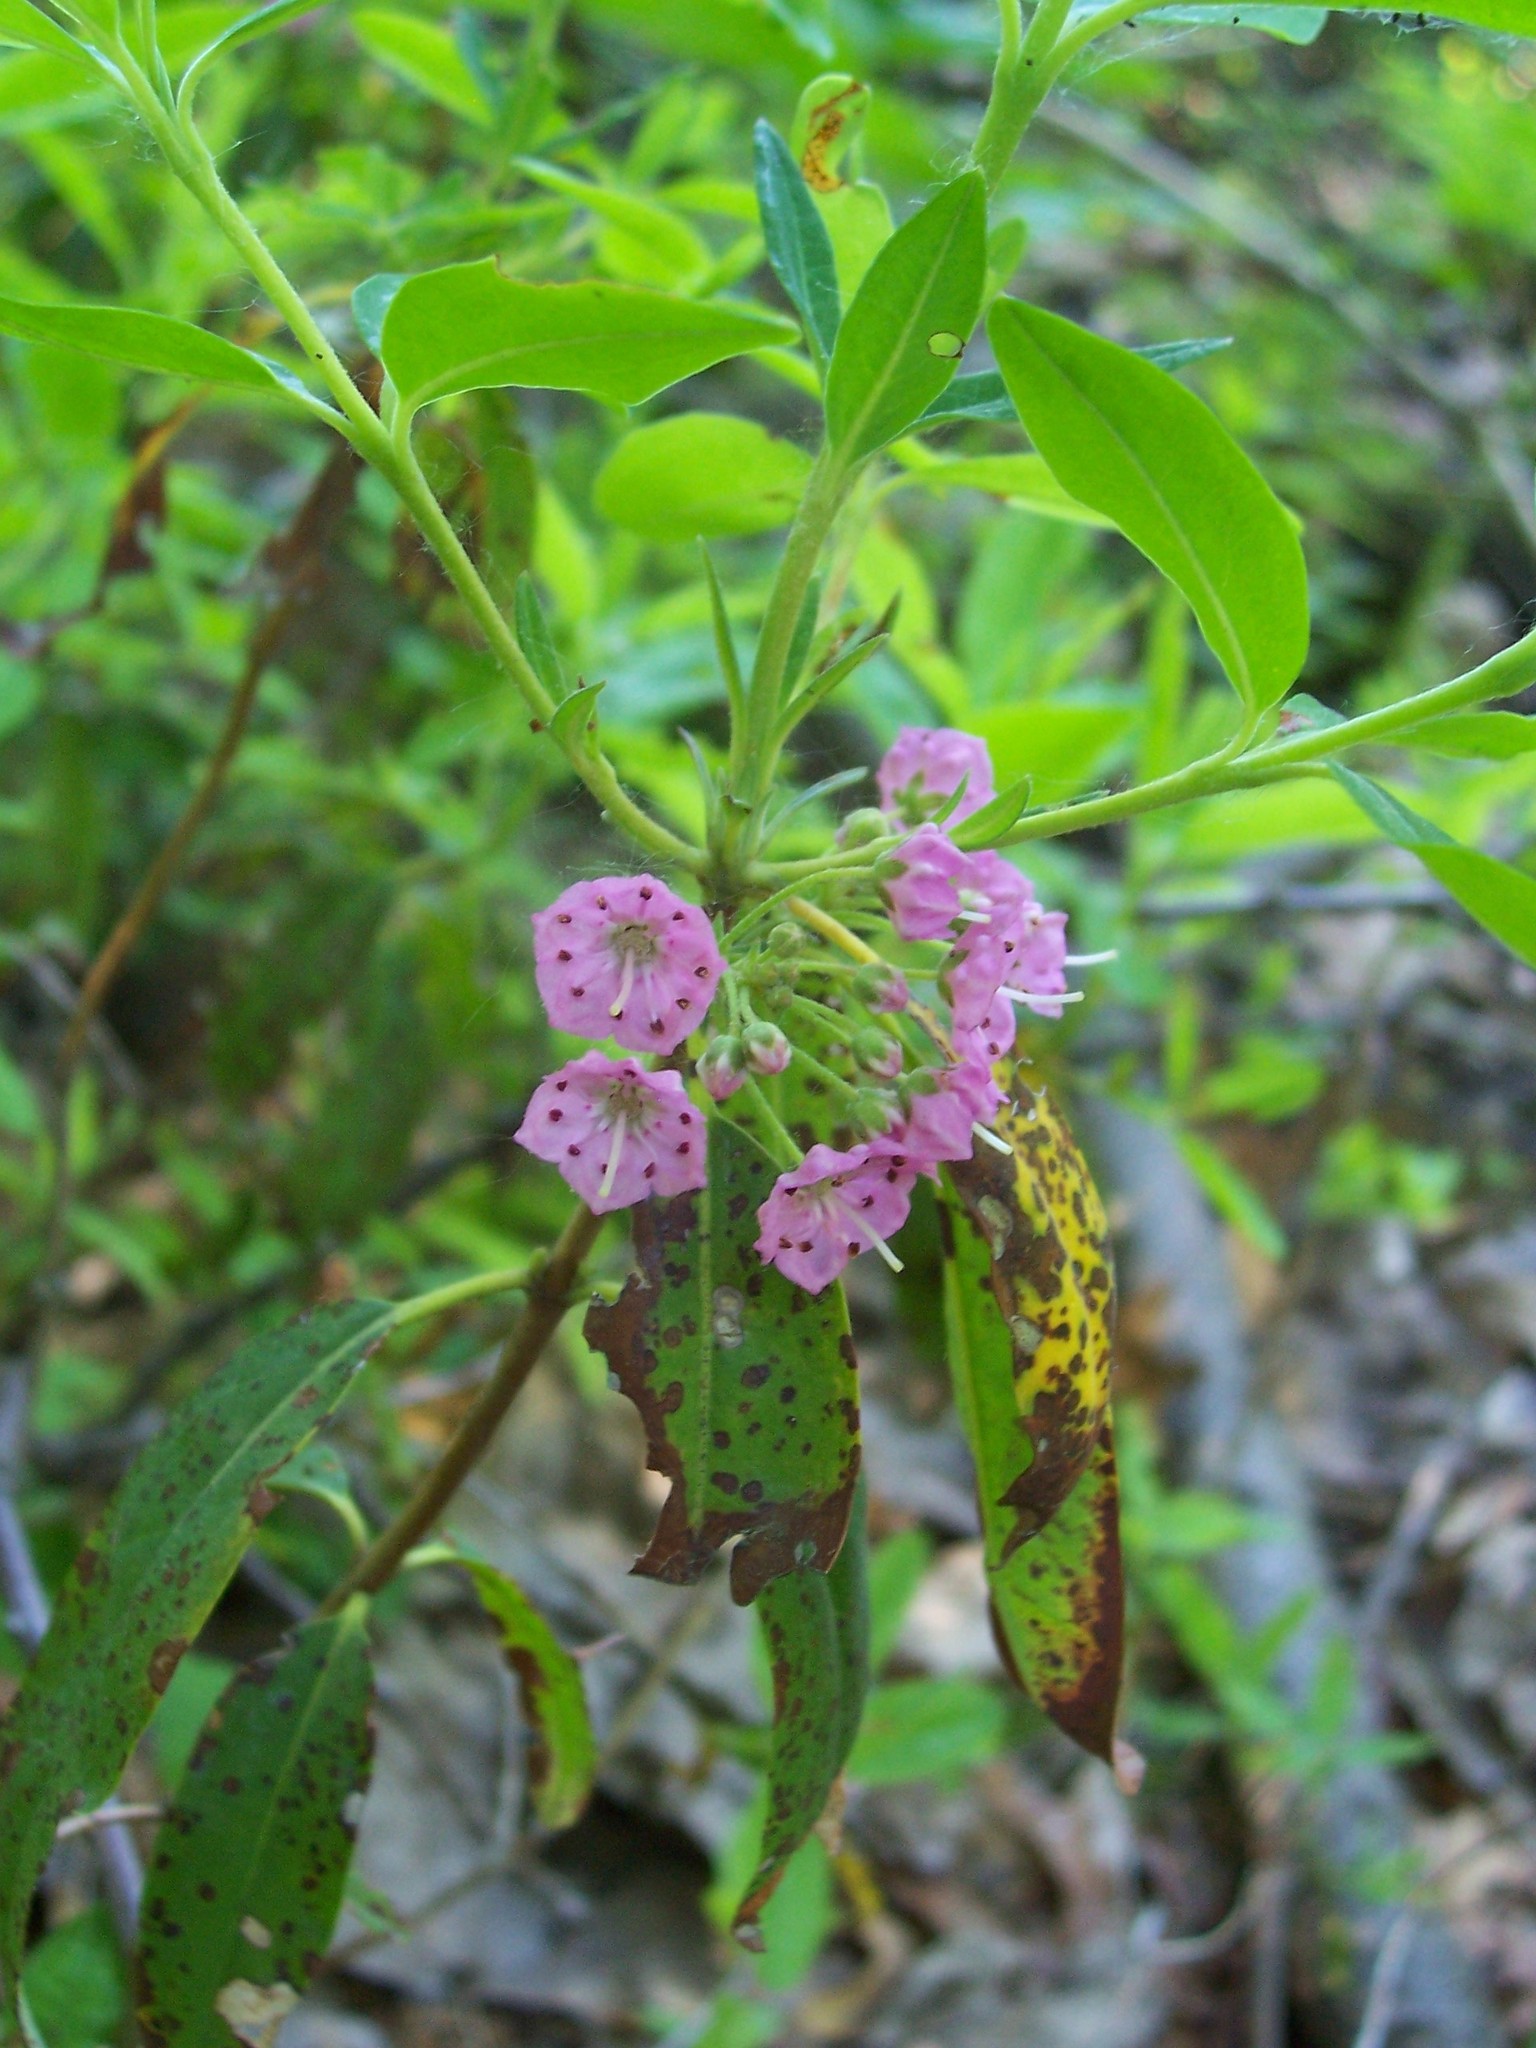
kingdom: Plantae
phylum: Tracheophyta
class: Magnoliopsida
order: Ericales
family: Ericaceae
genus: Kalmia
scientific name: Kalmia angustifolia
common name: Sheep-laurel
